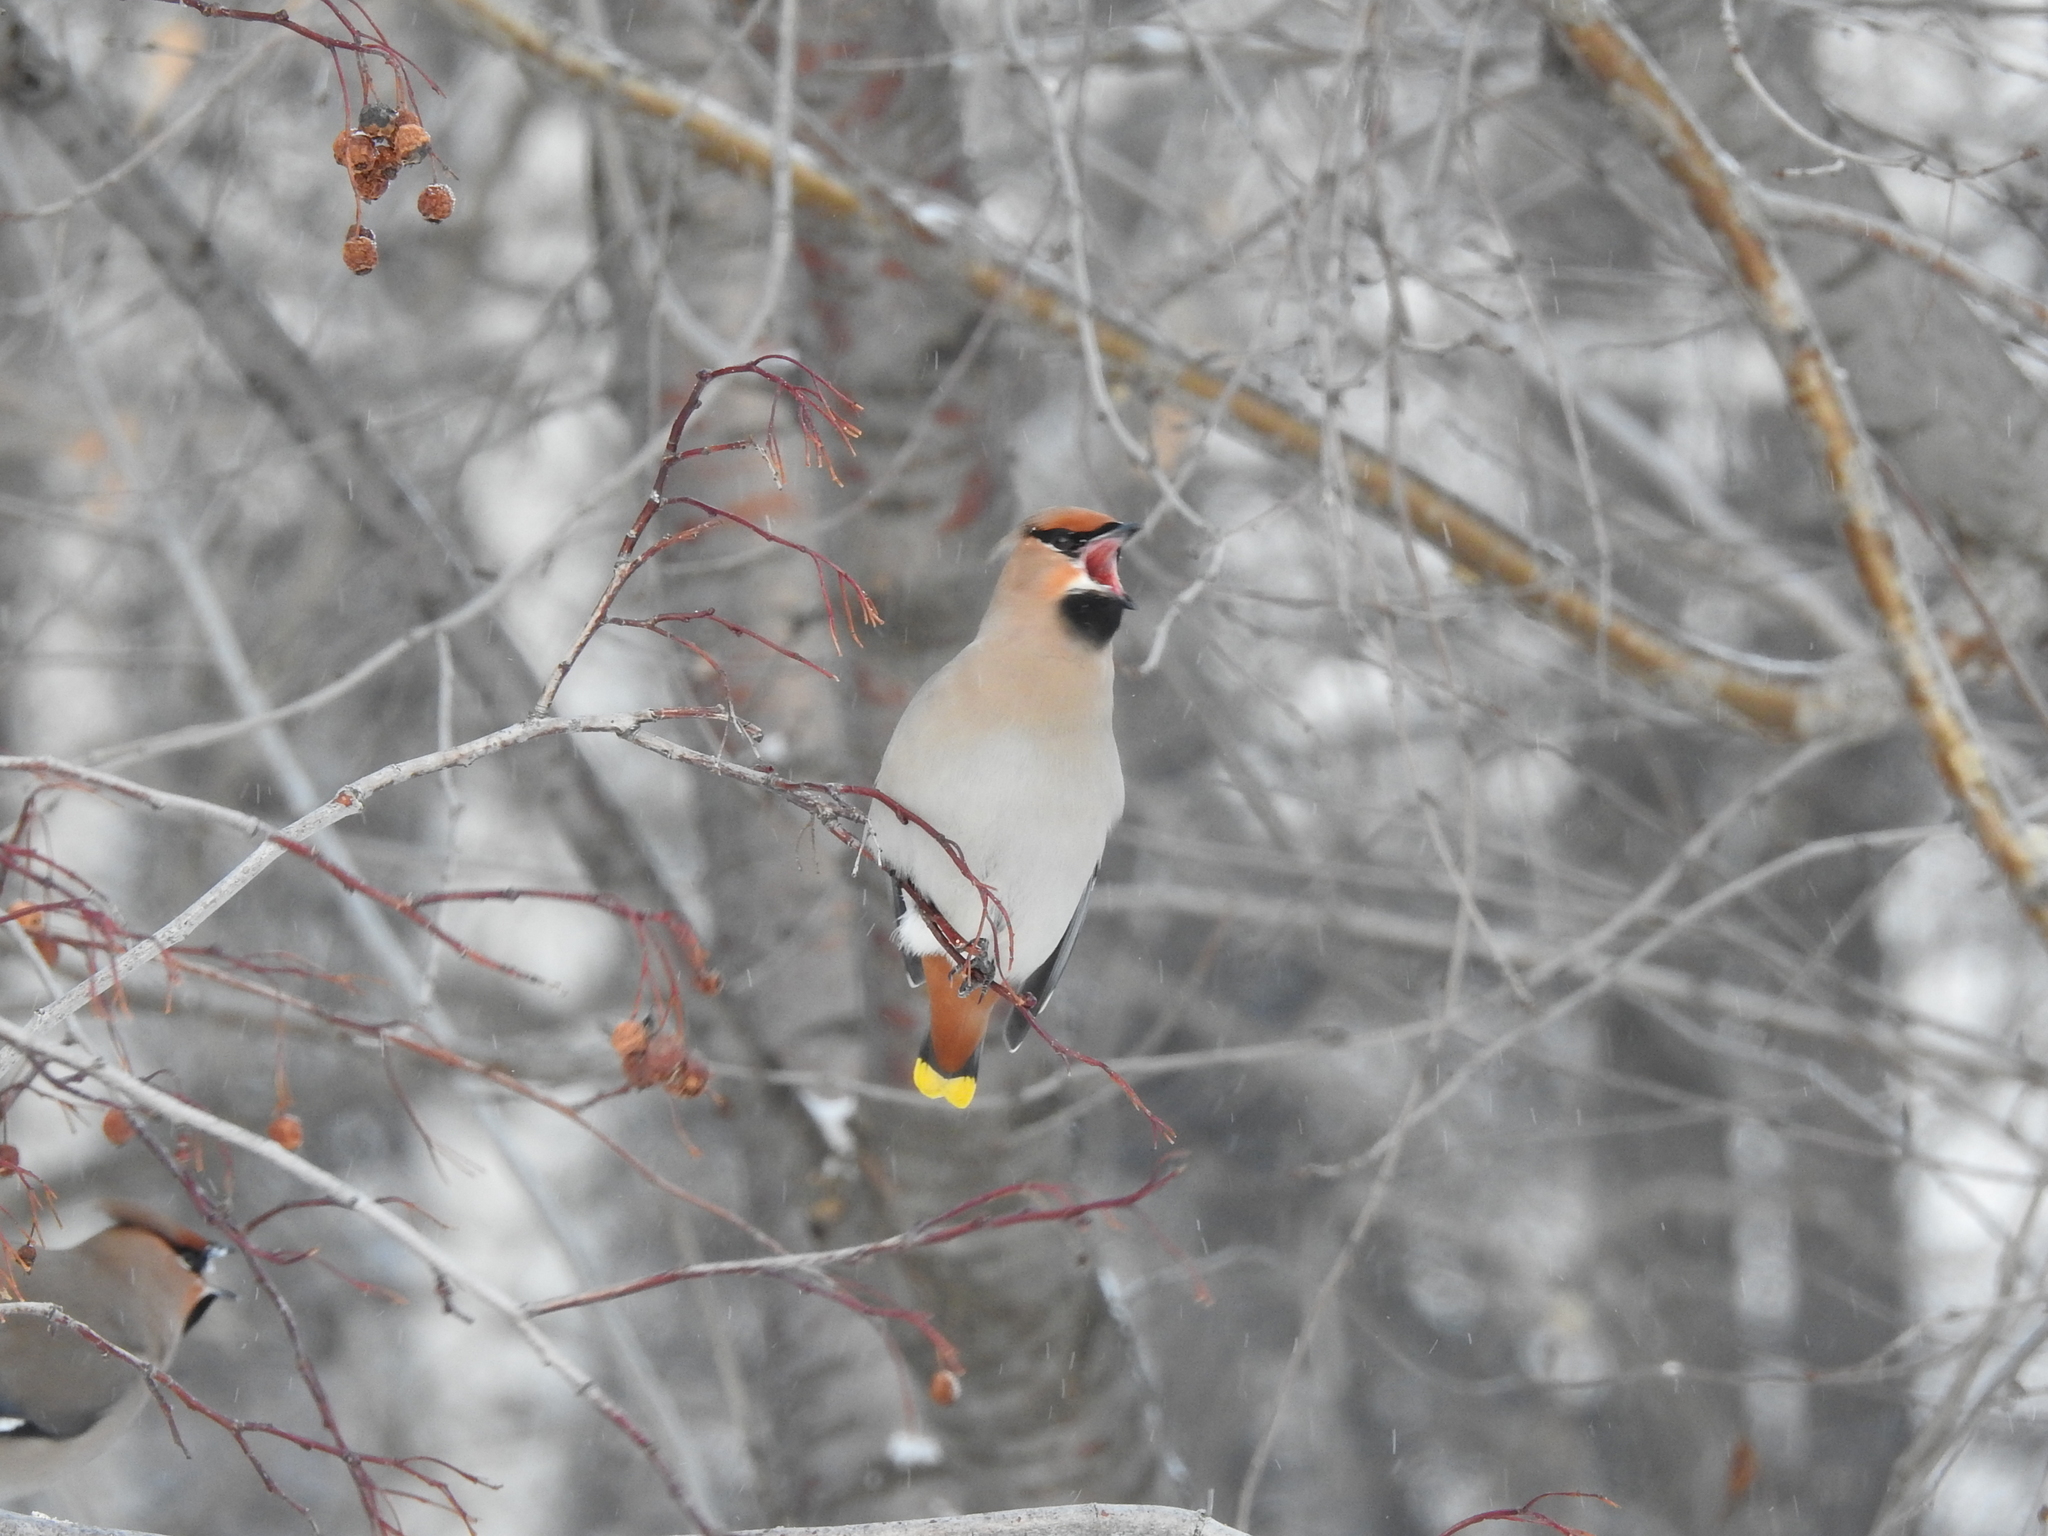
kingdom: Animalia
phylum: Chordata
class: Aves
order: Passeriformes
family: Bombycillidae
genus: Bombycilla
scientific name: Bombycilla garrulus
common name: Bohemian waxwing
